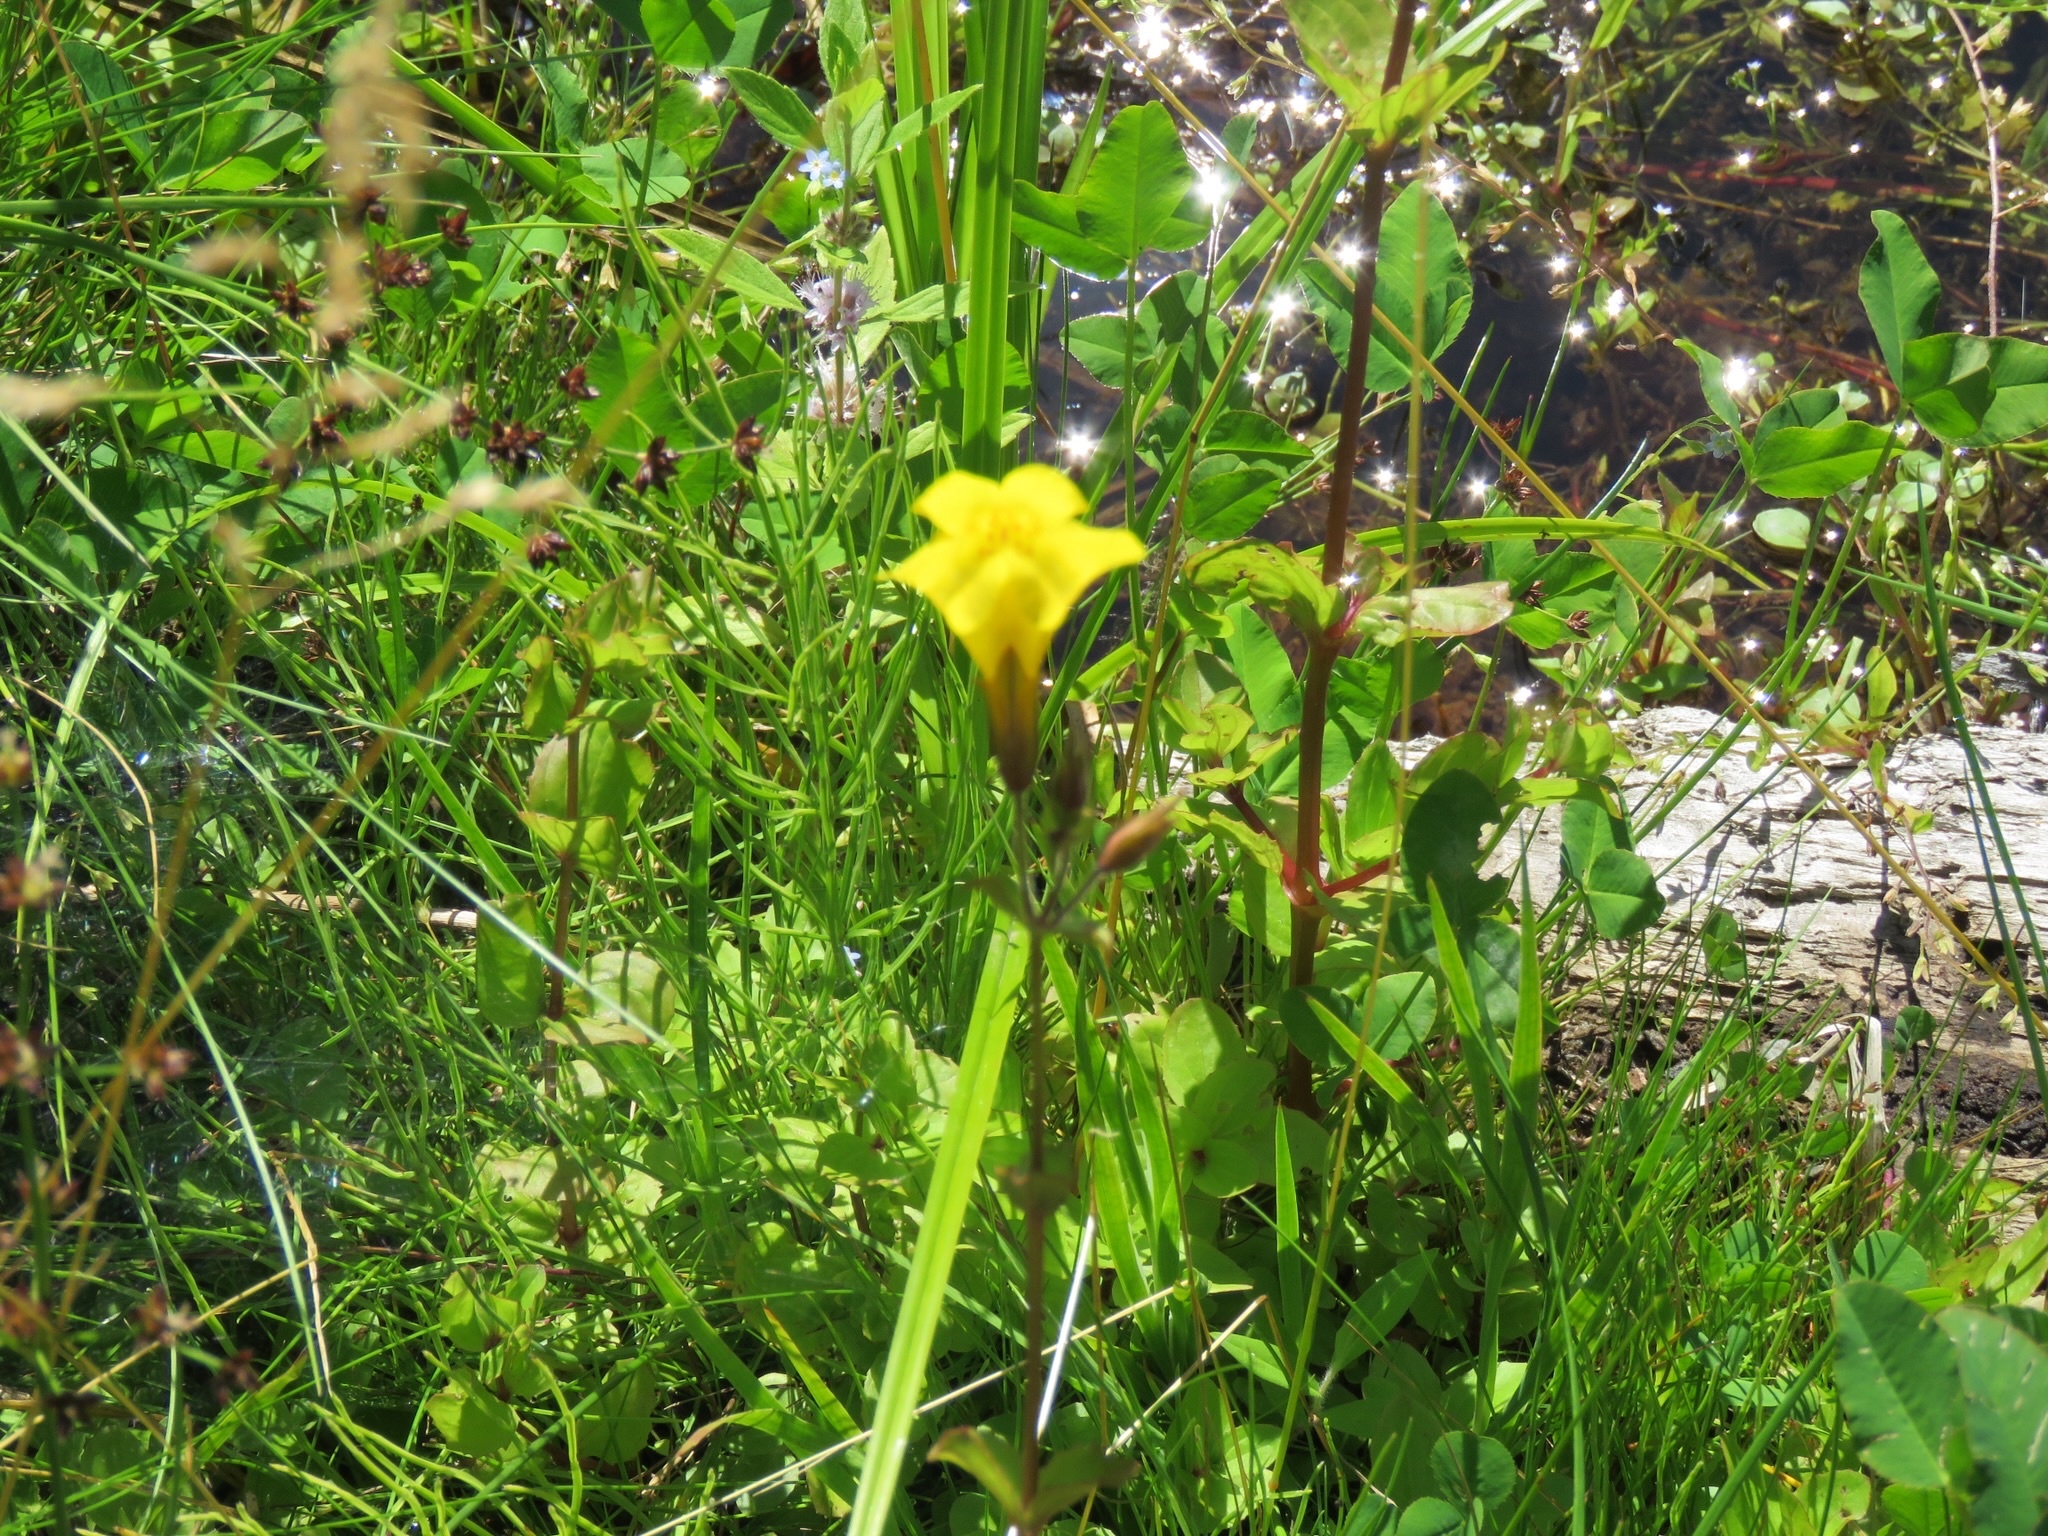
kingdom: Plantae
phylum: Tracheophyta
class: Magnoliopsida
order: Lamiales
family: Phrymaceae
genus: Erythranthe
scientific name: Erythranthe guttata
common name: Monkeyflower
